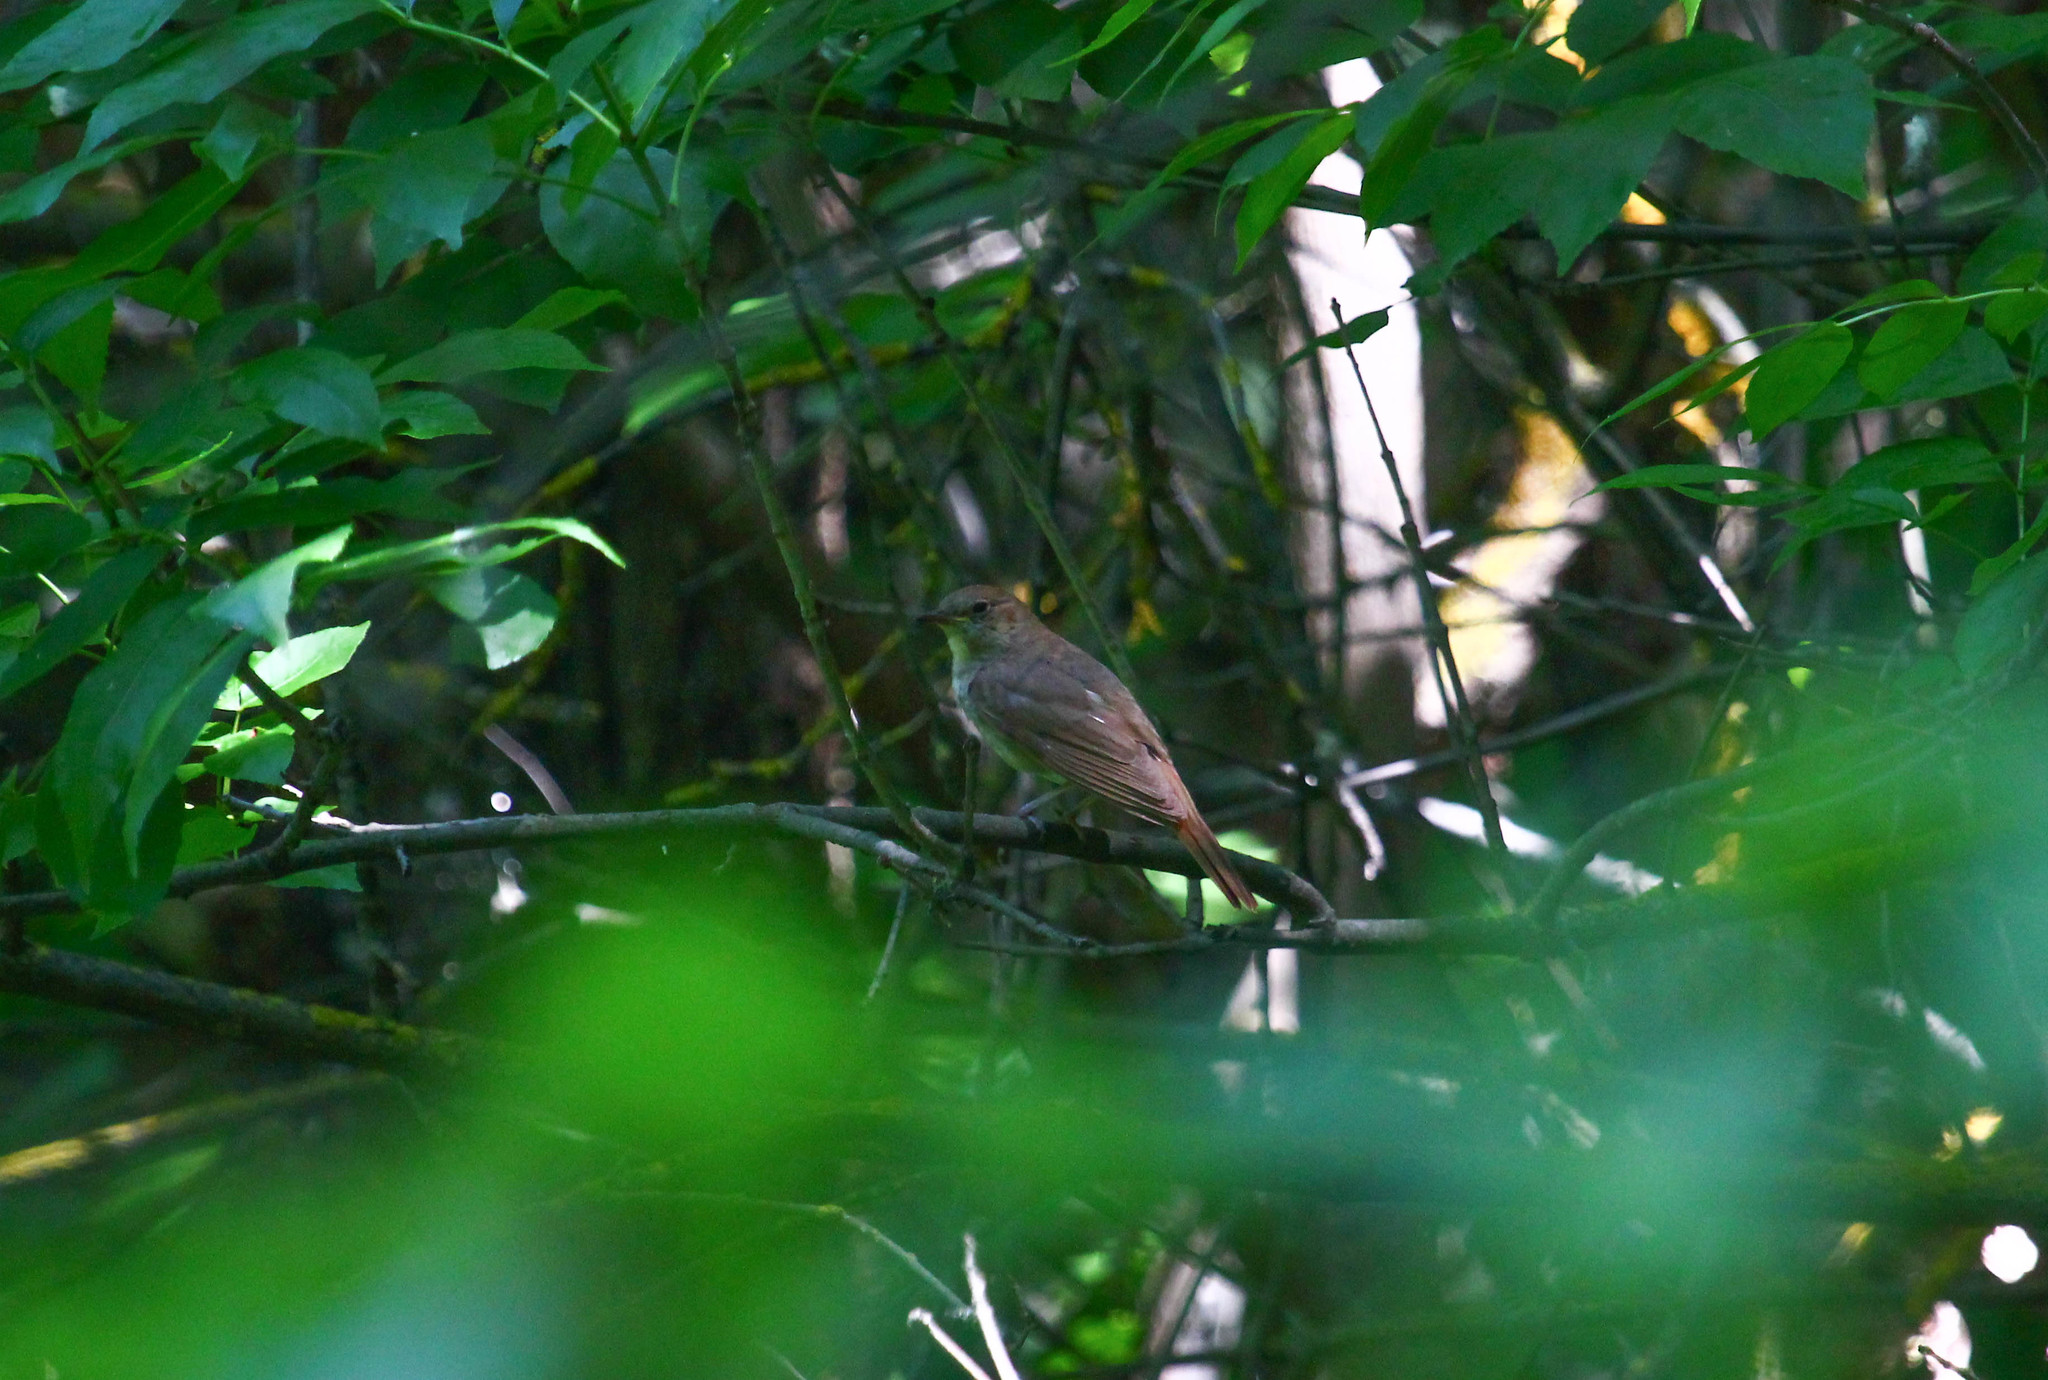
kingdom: Animalia
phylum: Chordata
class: Aves
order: Passeriformes
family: Muscicapidae
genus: Luscinia
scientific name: Luscinia luscinia
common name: Thrush nightingale
